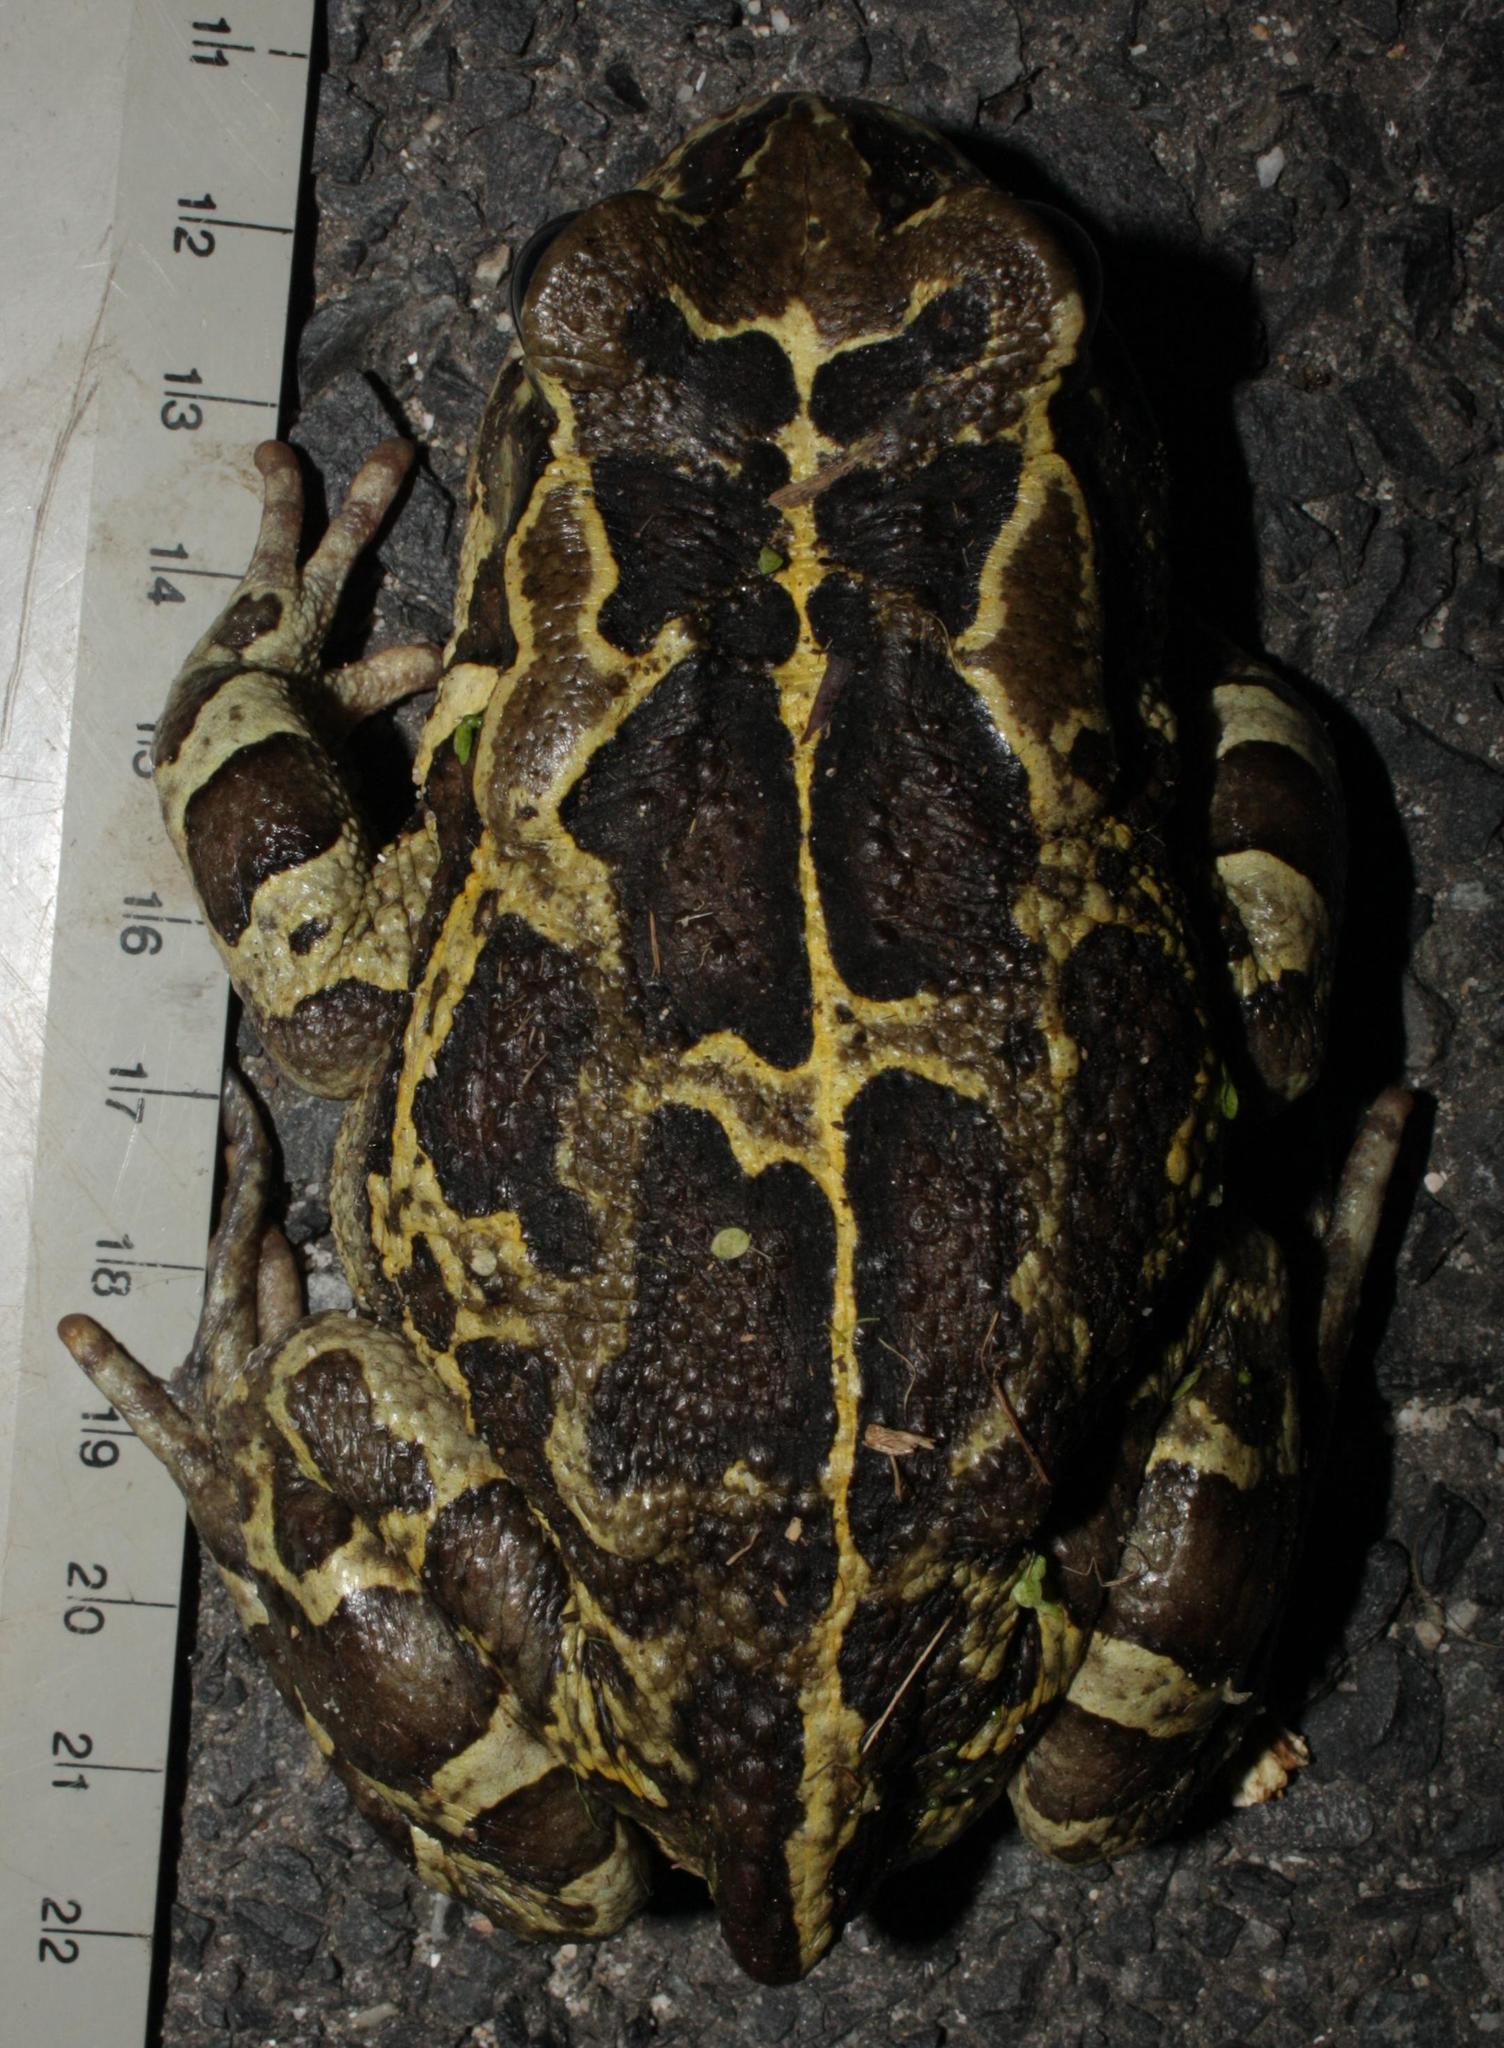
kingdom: Animalia
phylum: Chordata
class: Amphibia
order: Anura
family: Bufonidae
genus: Sclerophrys
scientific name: Sclerophrys pantherina
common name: Panther toad
